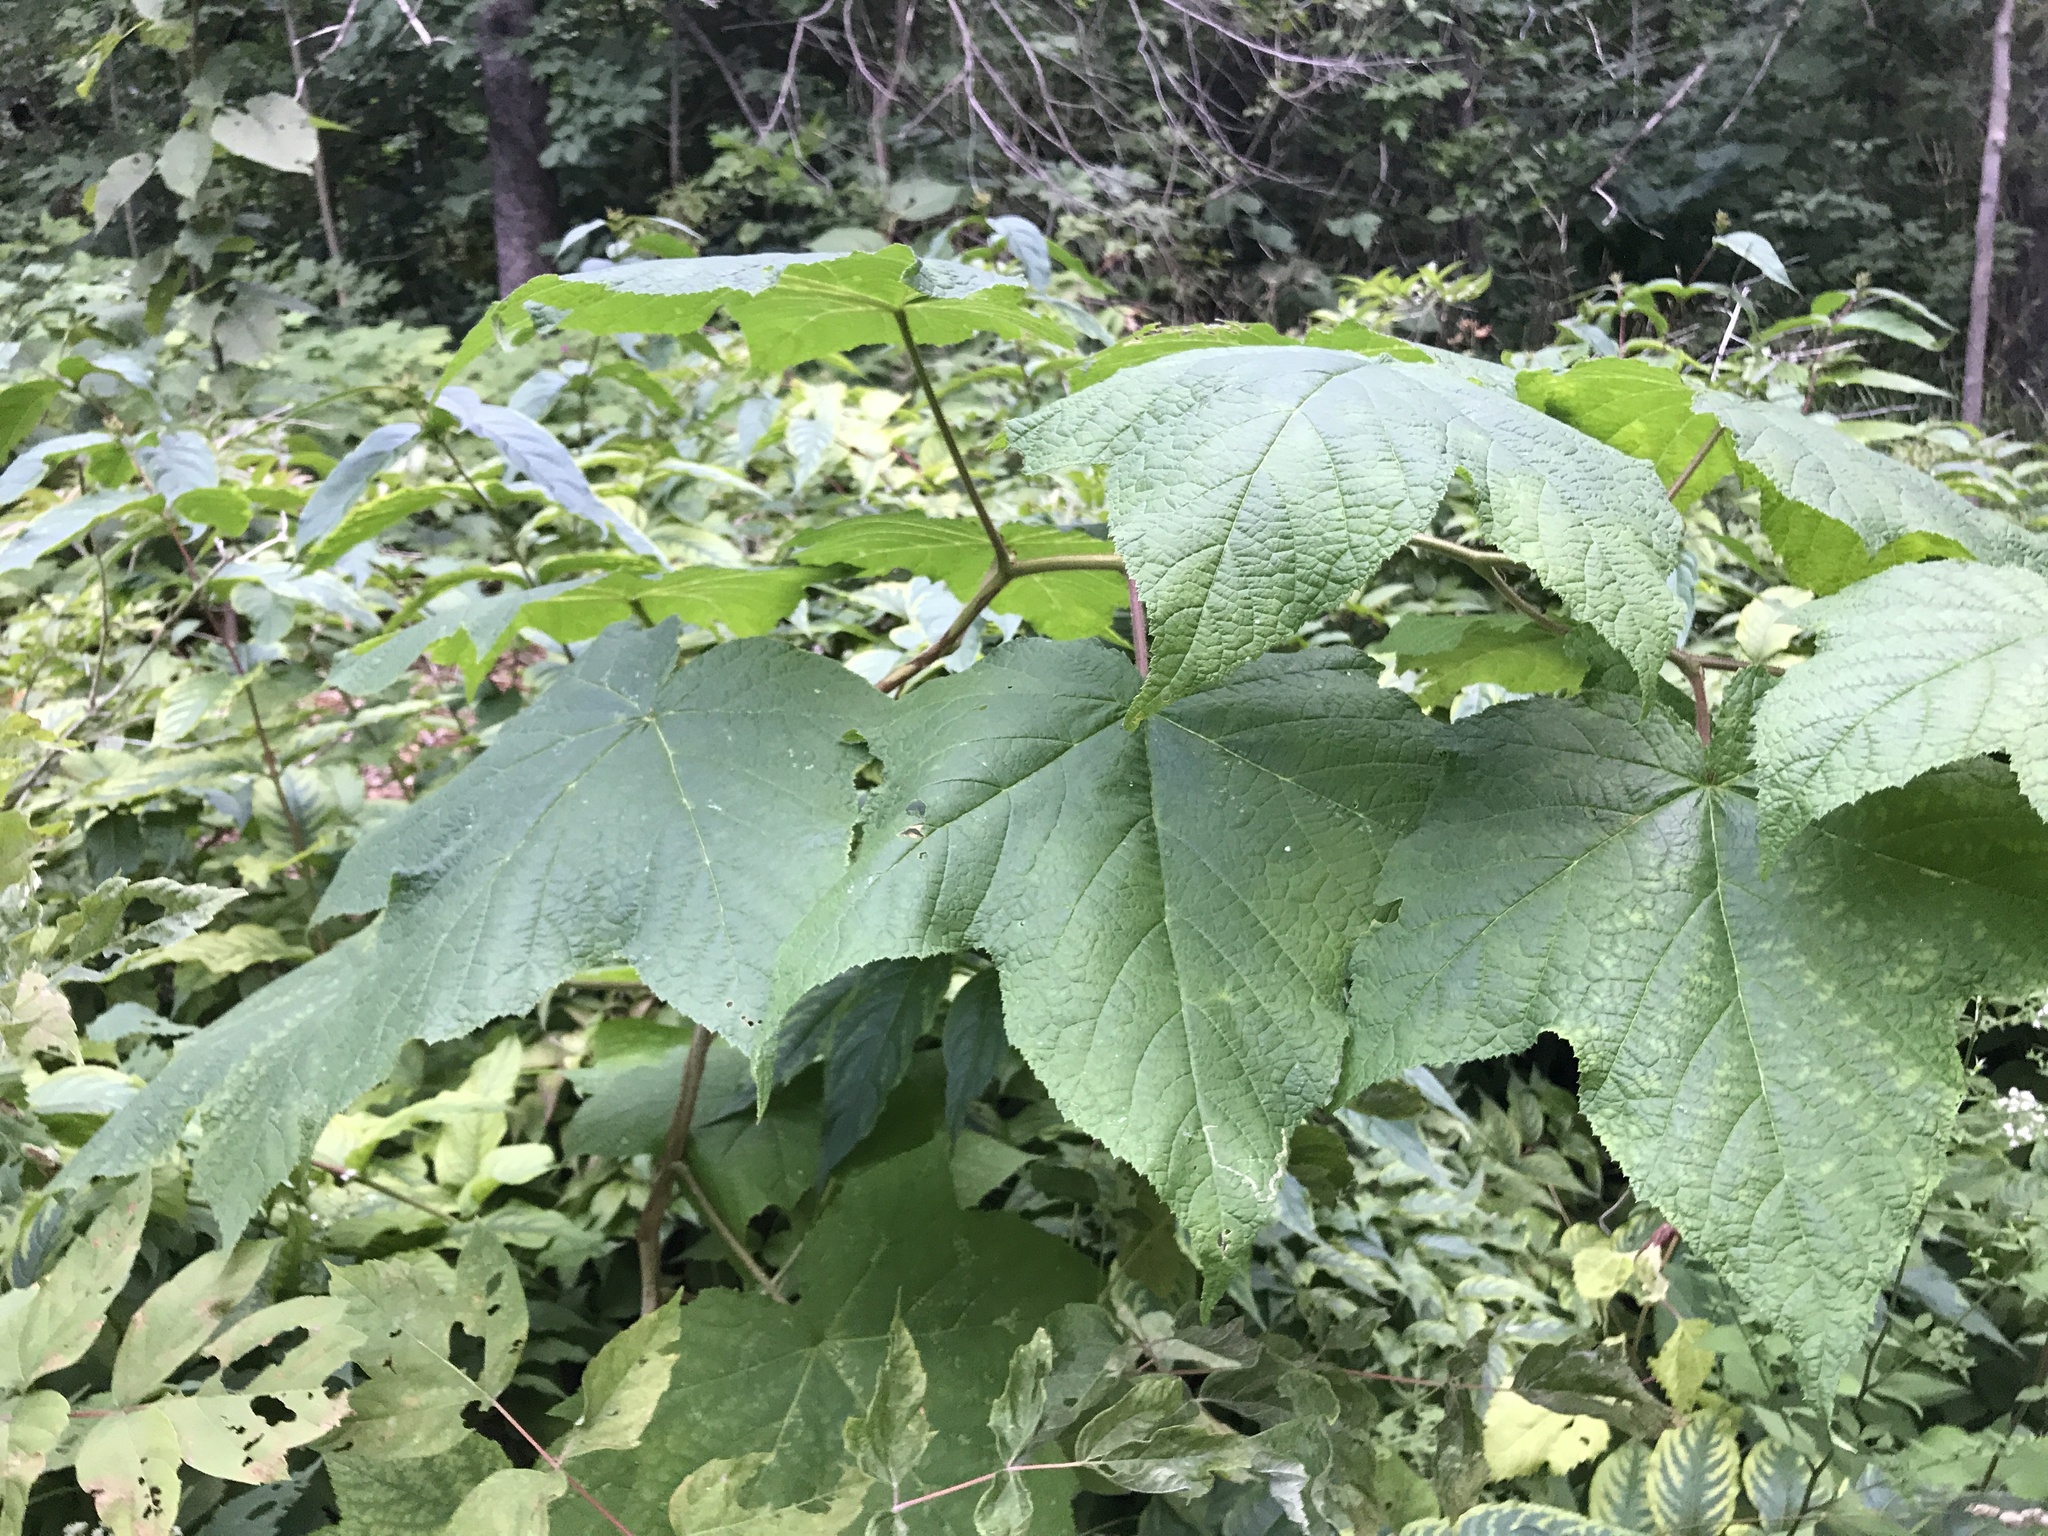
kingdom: Plantae
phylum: Tracheophyta
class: Magnoliopsida
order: Rosales
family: Rosaceae
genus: Rubus
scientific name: Rubus odoratus
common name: Purple-flowered raspberry
